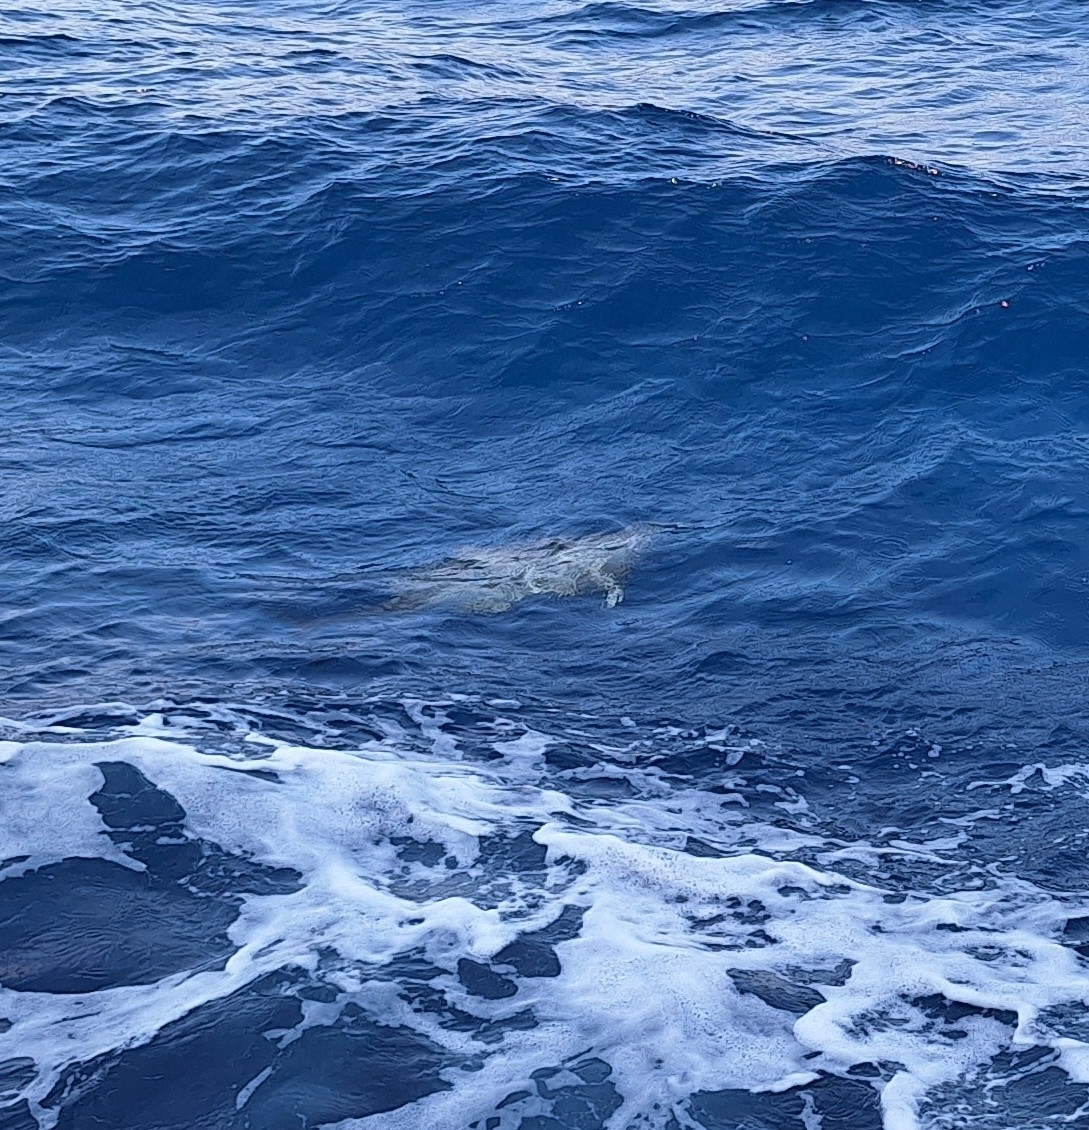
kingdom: Animalia
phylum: Chordata
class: Mammalia
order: Cetacea
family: Delphinidae
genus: Stenella
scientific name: Stenella longirostris
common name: Spinner dolphin
